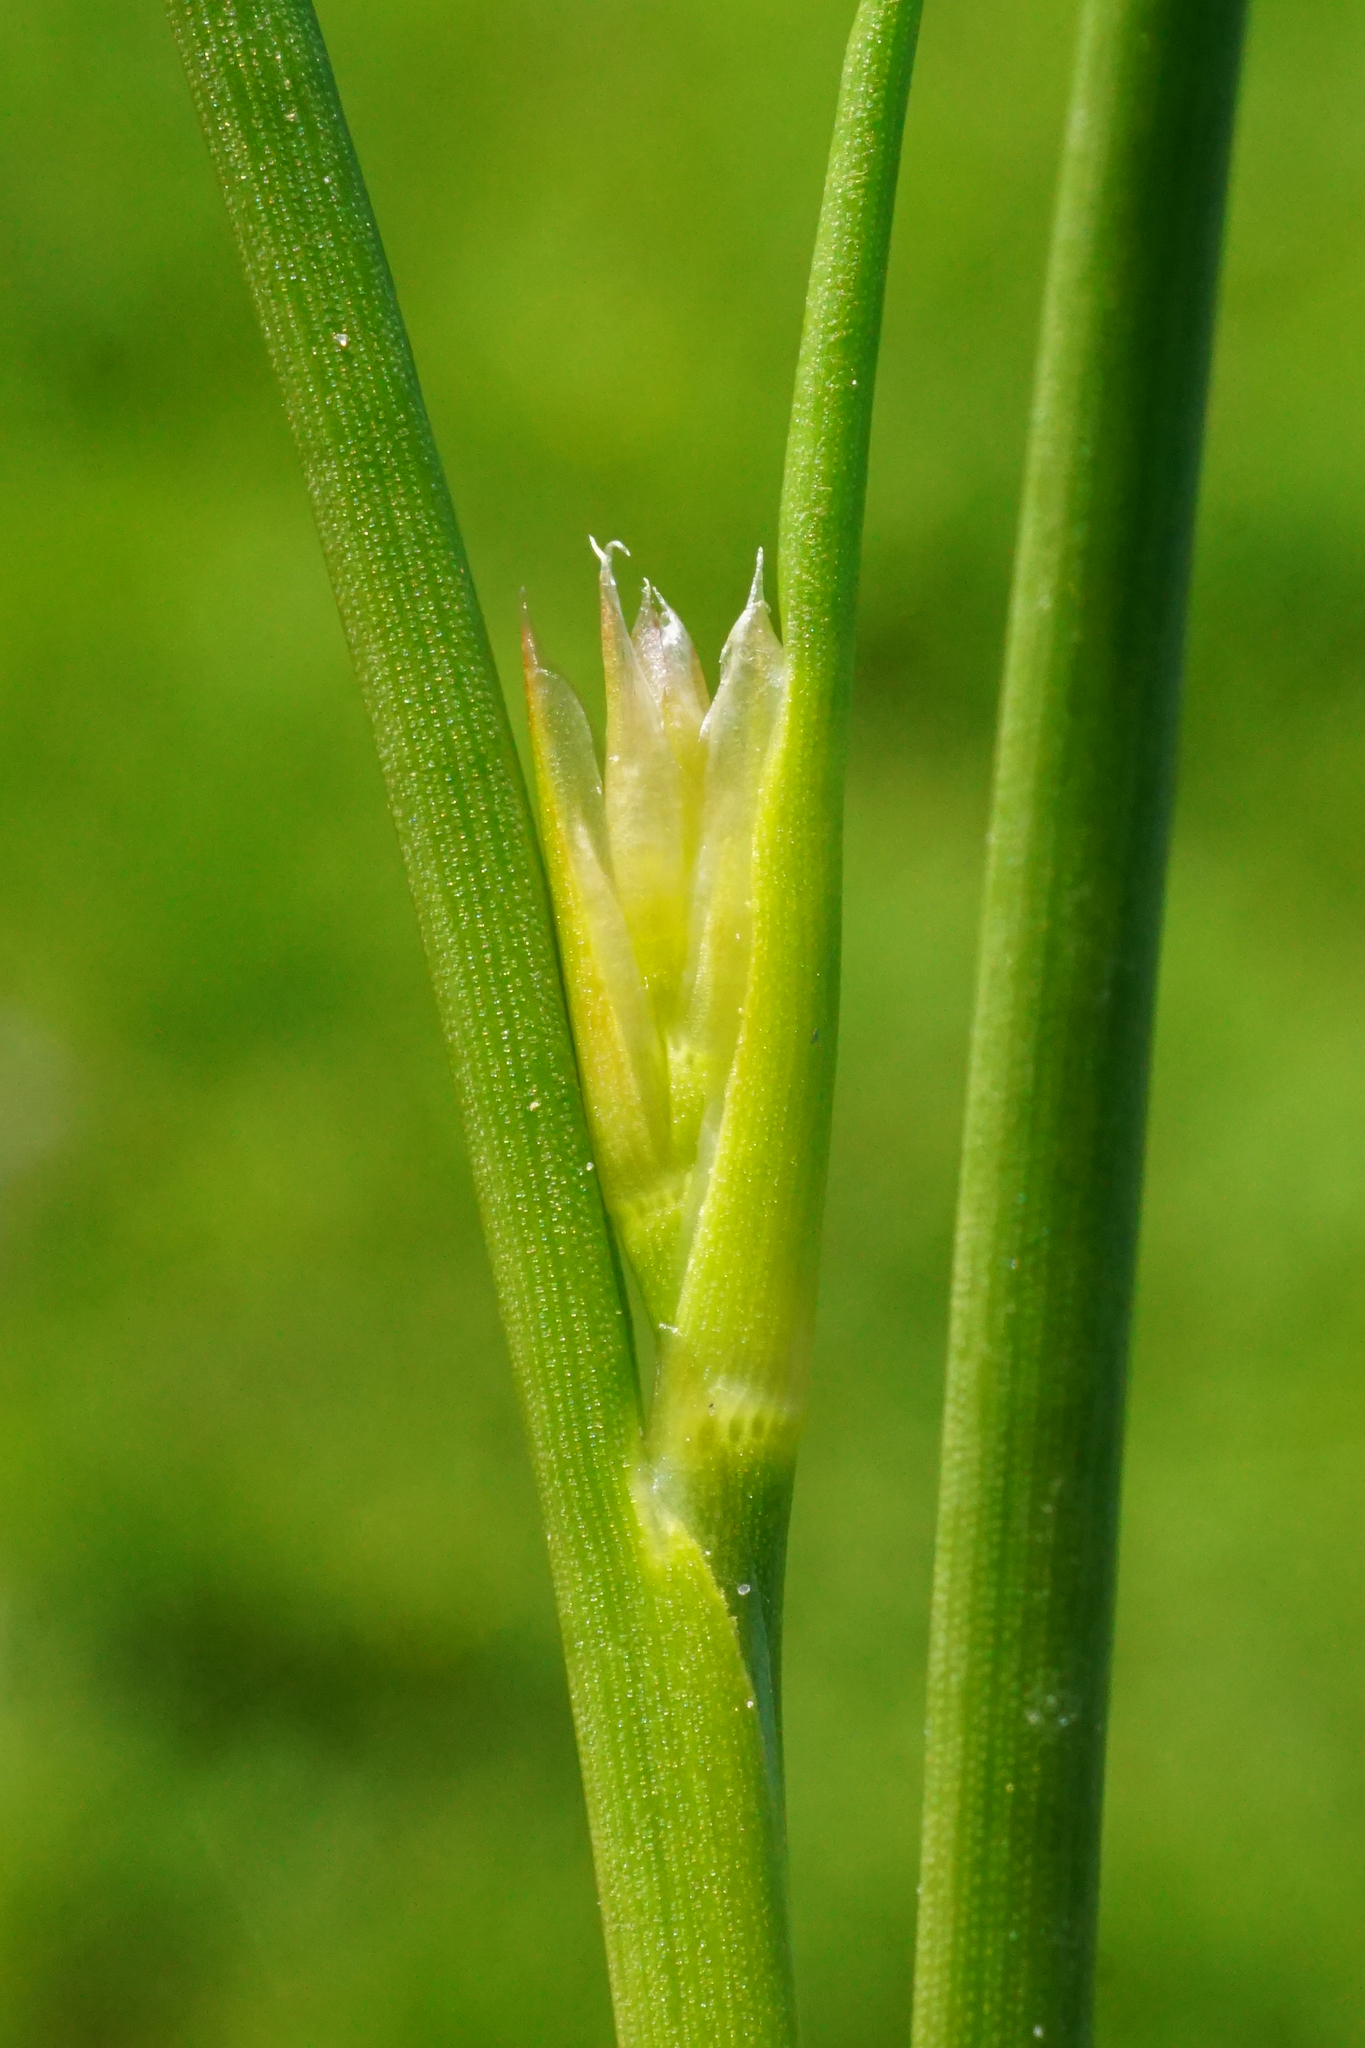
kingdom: Plantae
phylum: Tracheophyta
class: Liliopsida
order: Poales
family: Juncaceae
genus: Juncus
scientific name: Juncus articulatus
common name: Jointed rush
